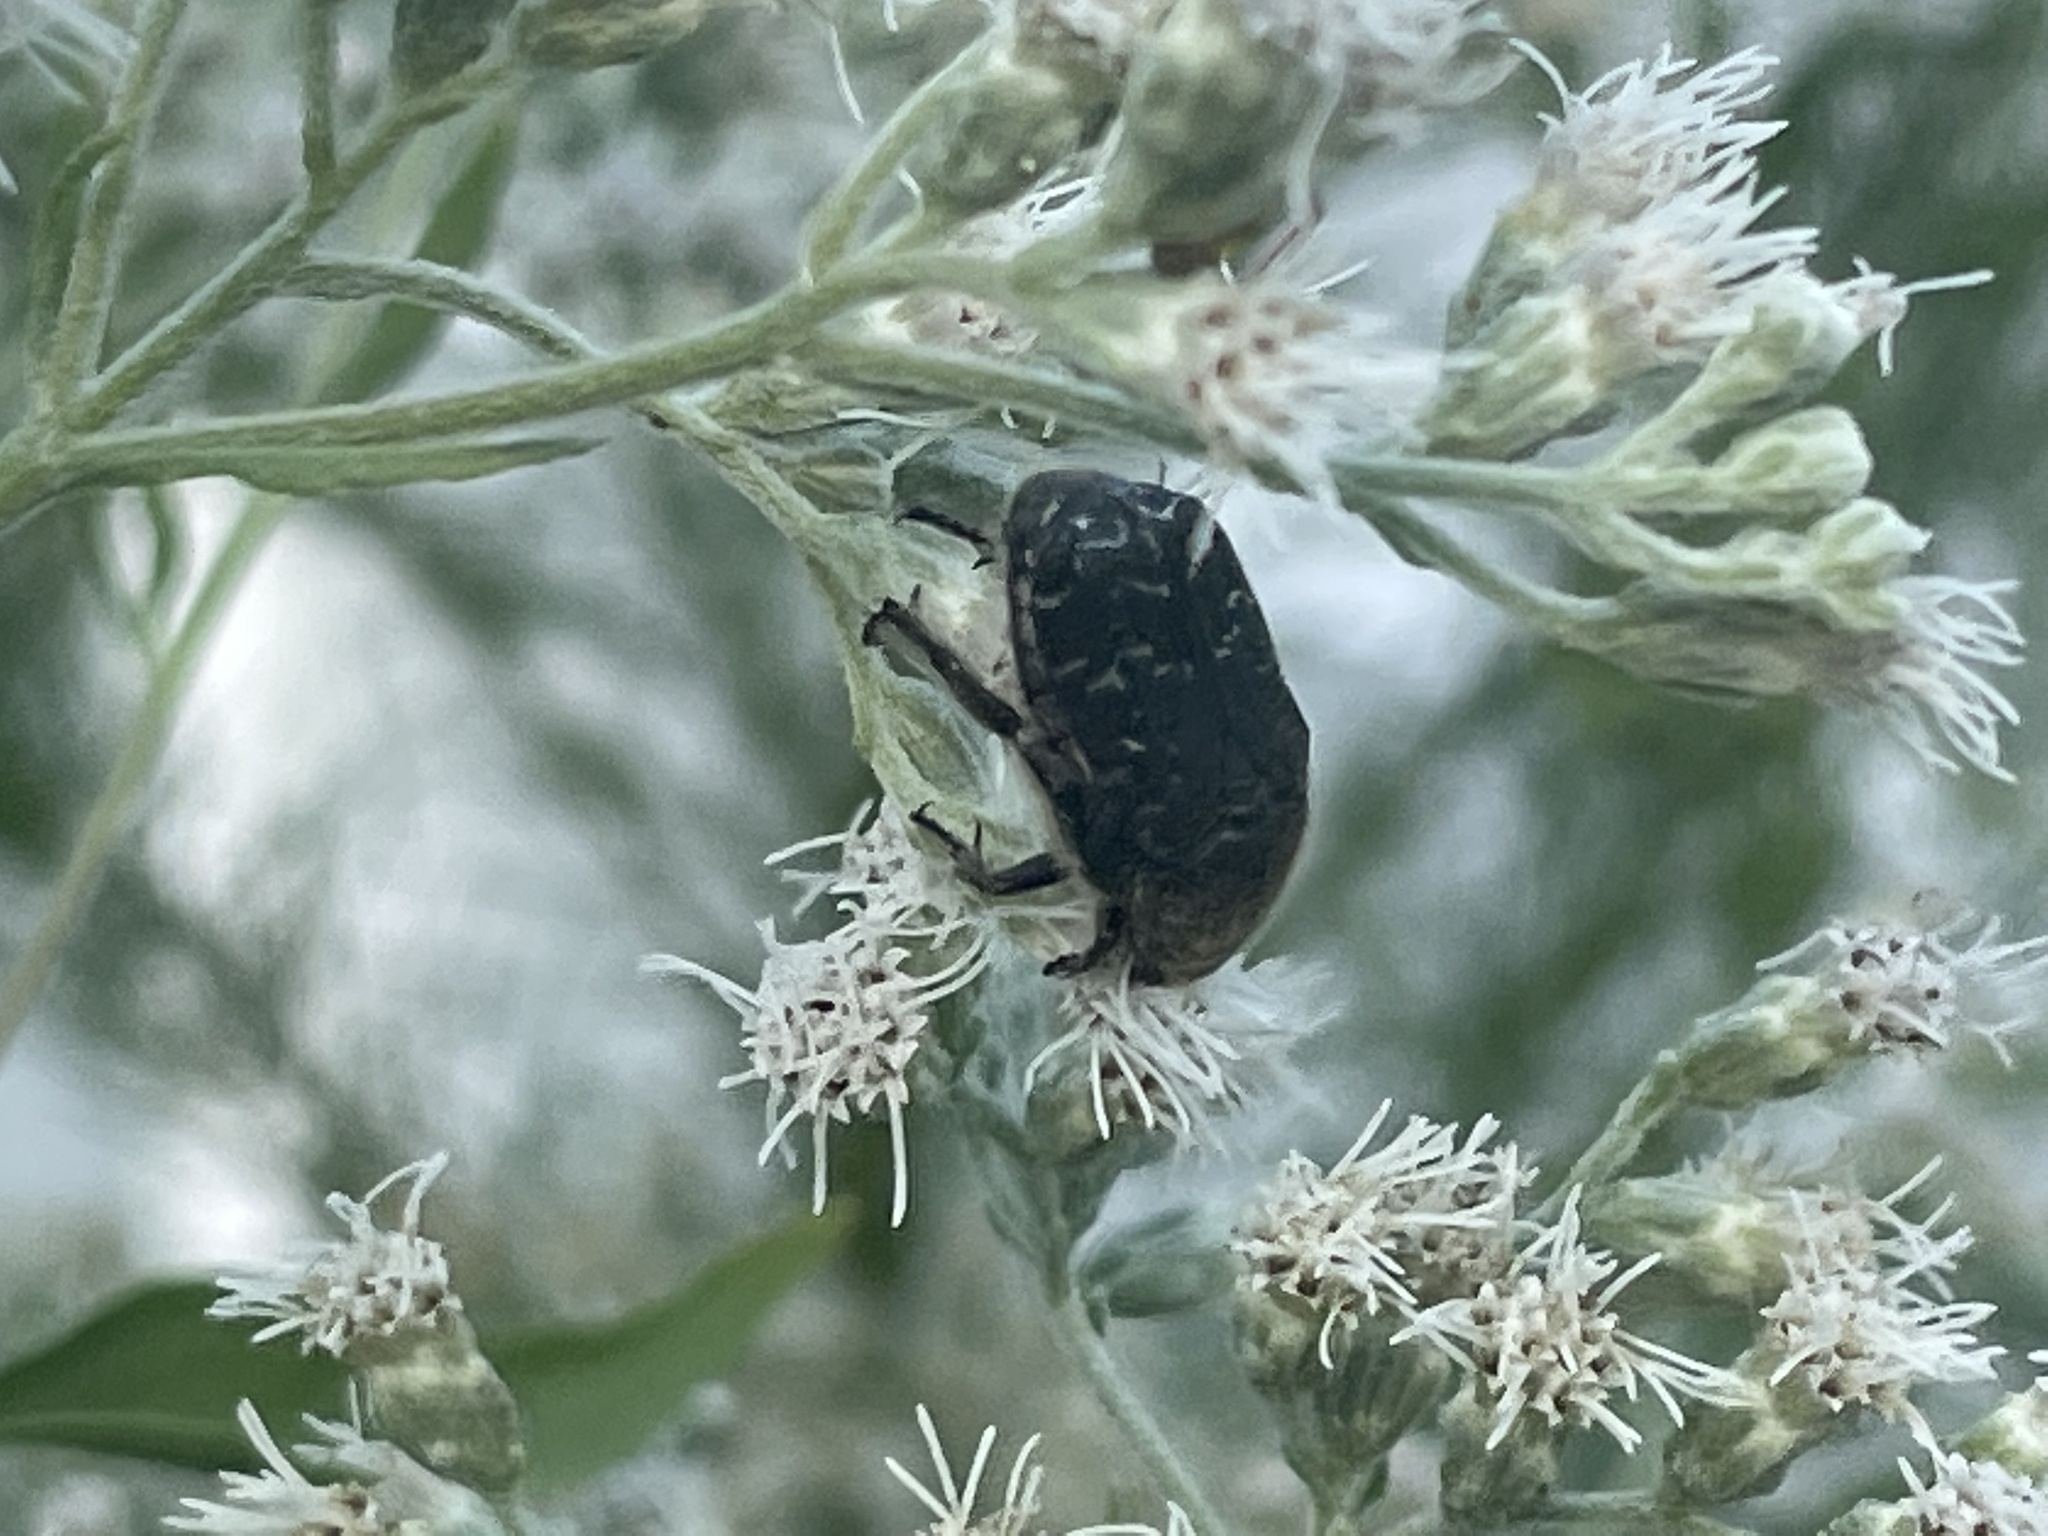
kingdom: Animalia
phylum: Arthropoda
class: Insecta
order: Coleoptera
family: Scarabaeidae
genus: Euphoria
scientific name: Euphoria sepulcralis
